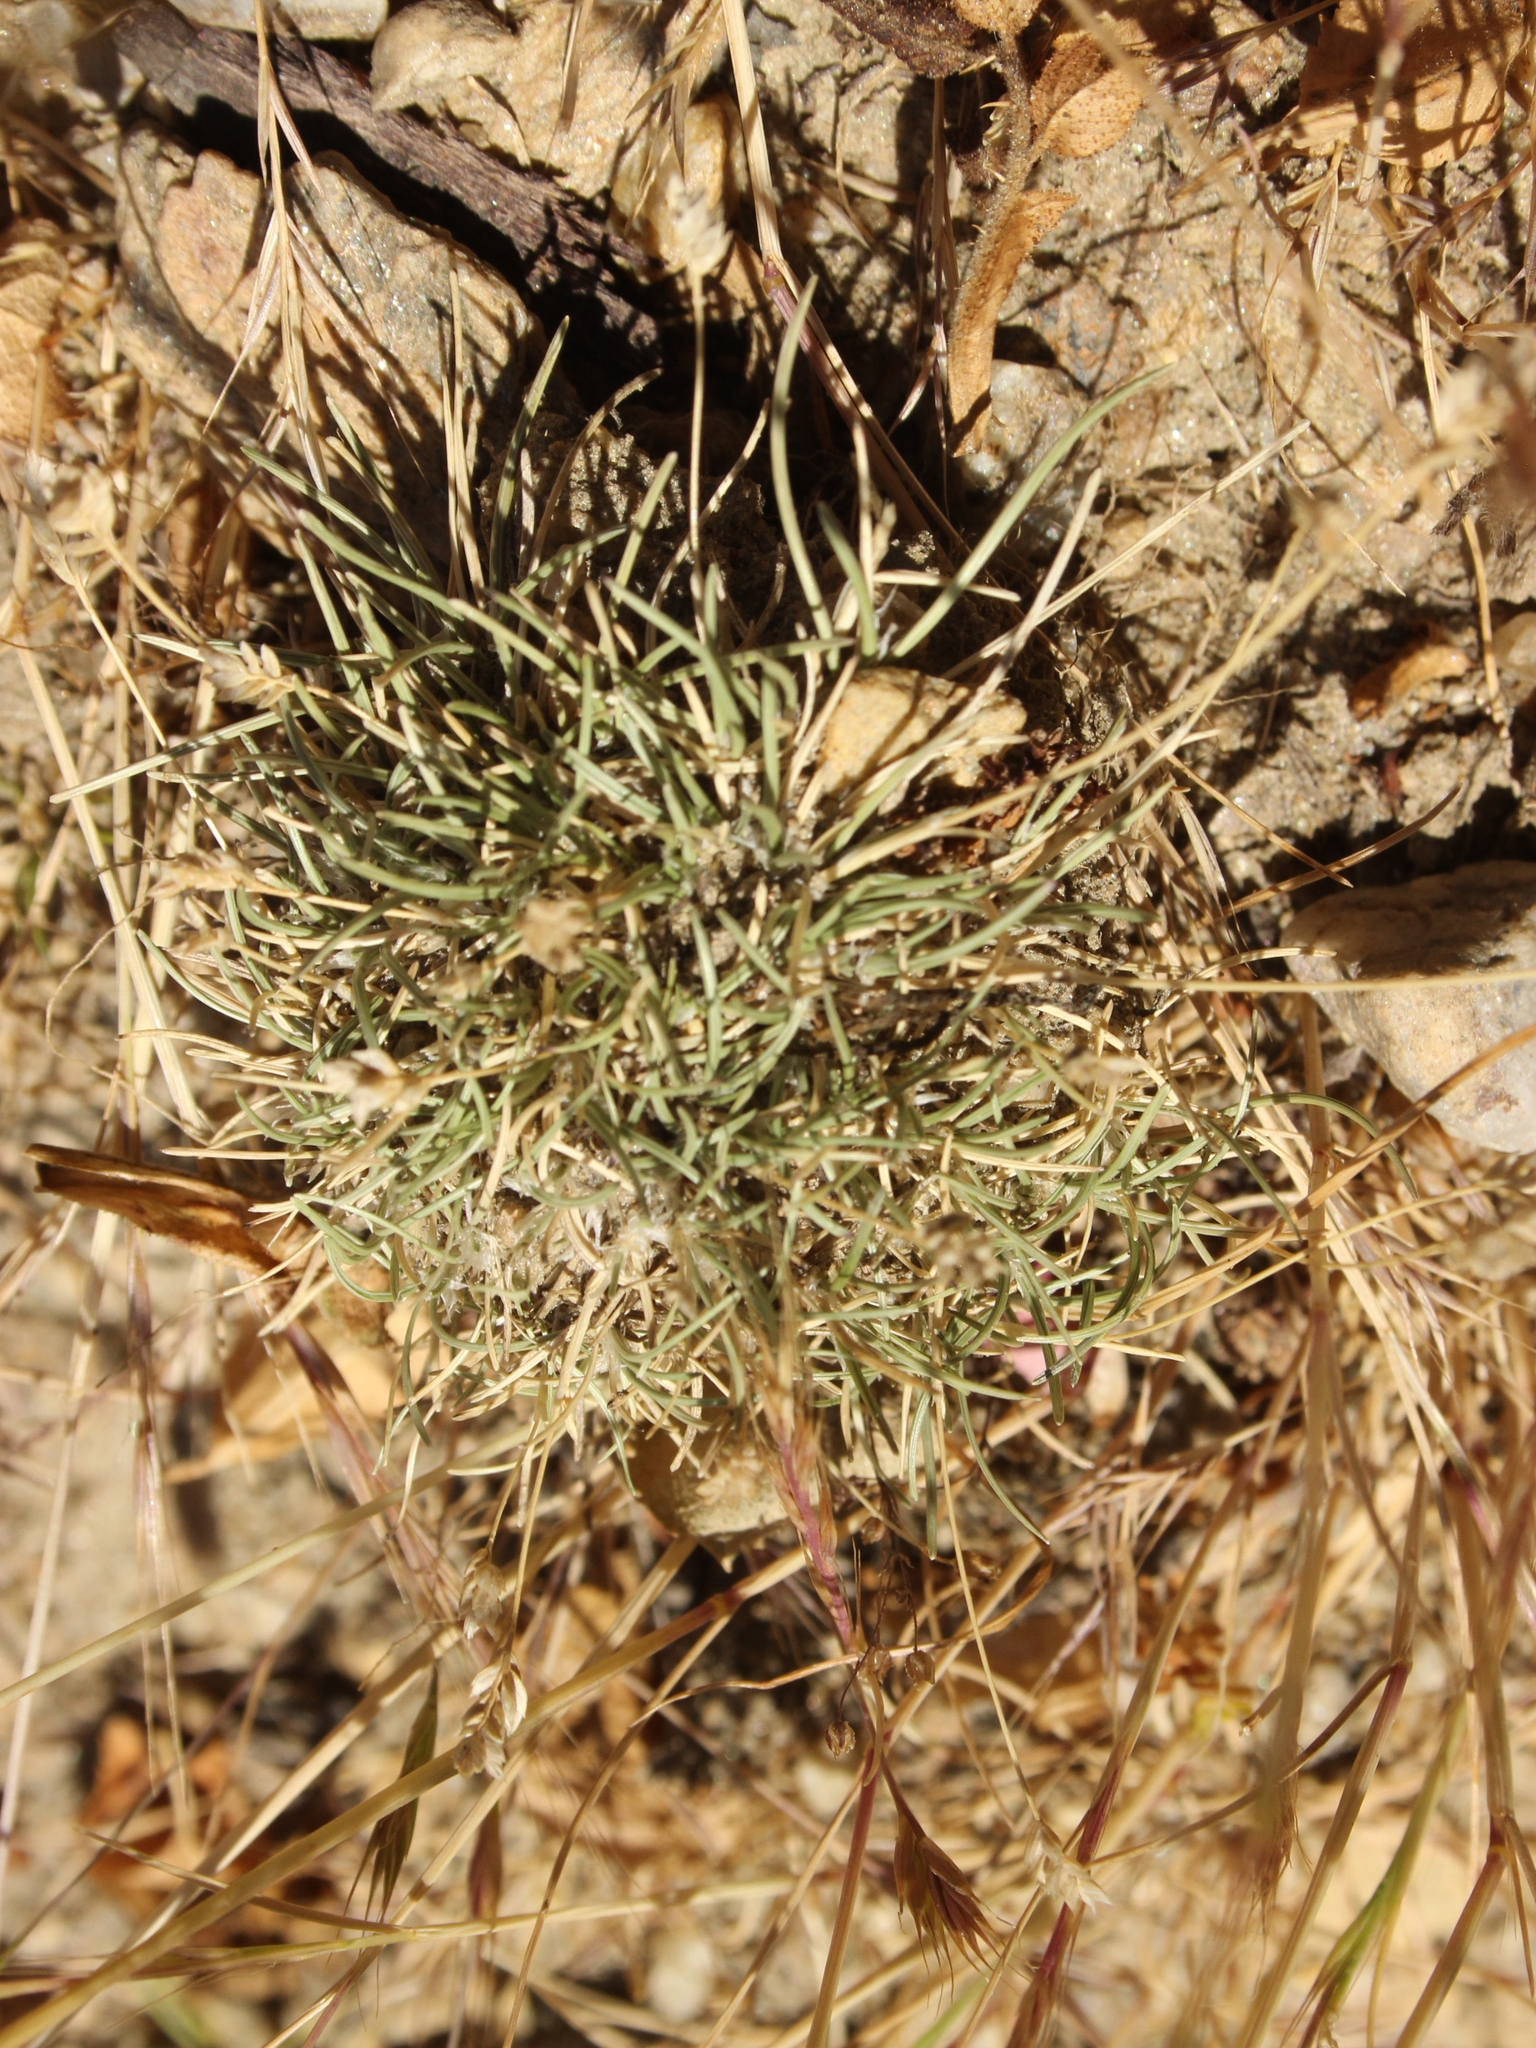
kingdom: Plantae
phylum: Tracheophyta
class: Liliopsida
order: Poales
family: Poaceae
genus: Poa
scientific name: Poa maniototo
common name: Desert poa
